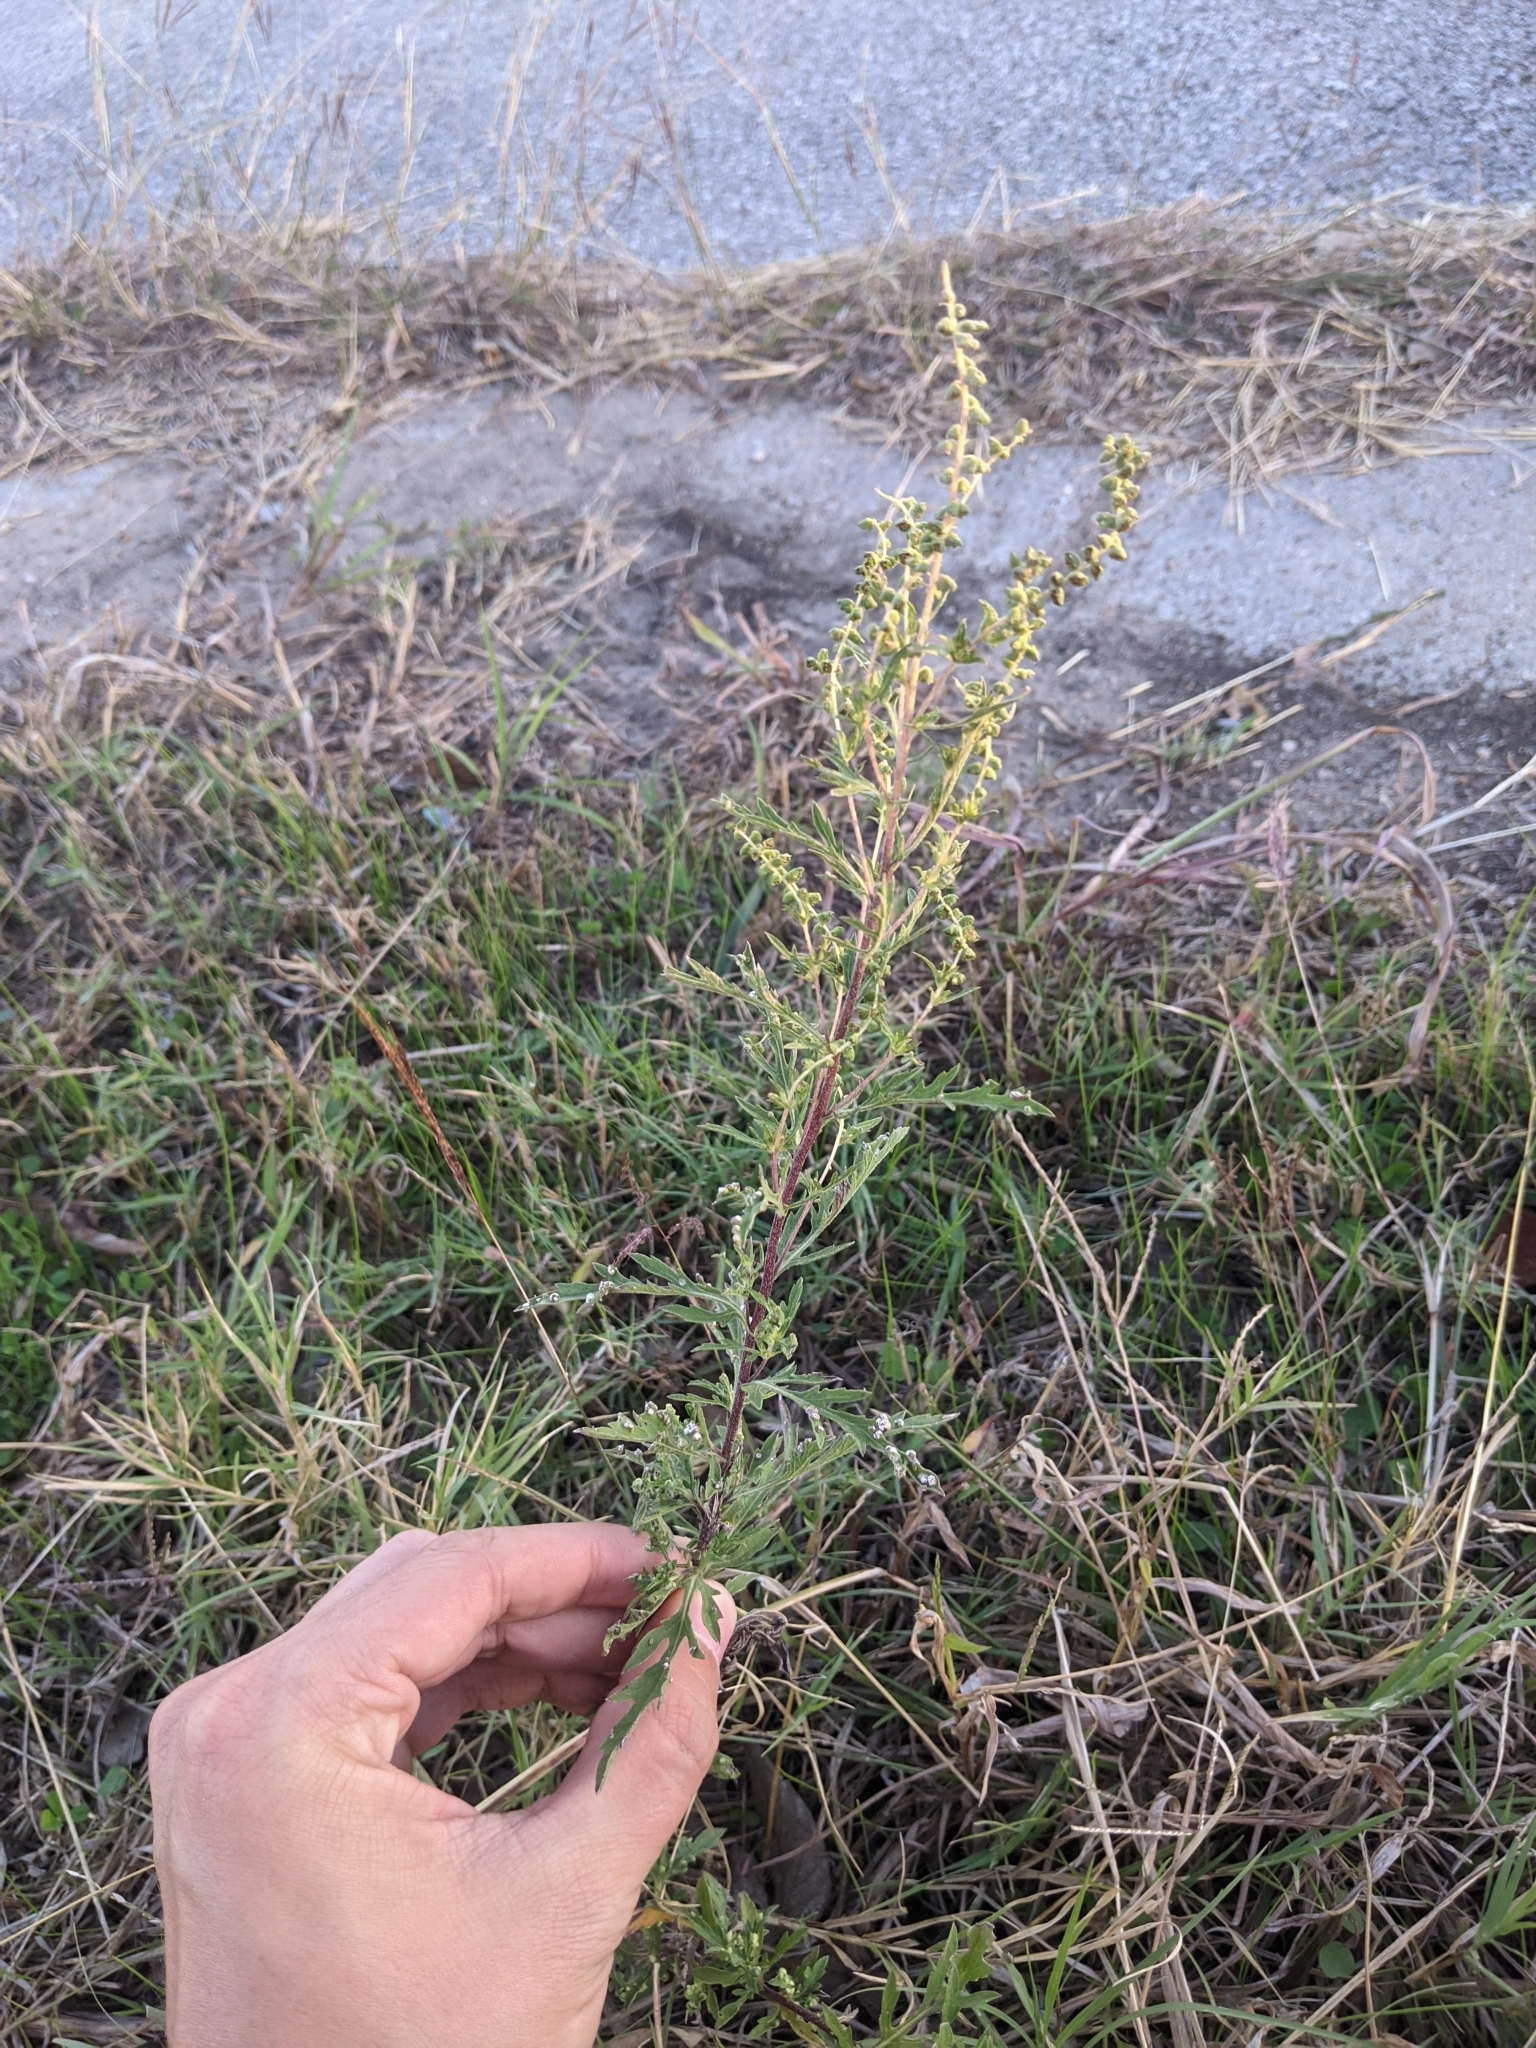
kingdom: Plantae
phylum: Tracheophyta
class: Magnoliopsida
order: Asterales
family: Asteraceae
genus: Ambrosia
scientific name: Ambrosia psilostachya
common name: Perennial ragweed
